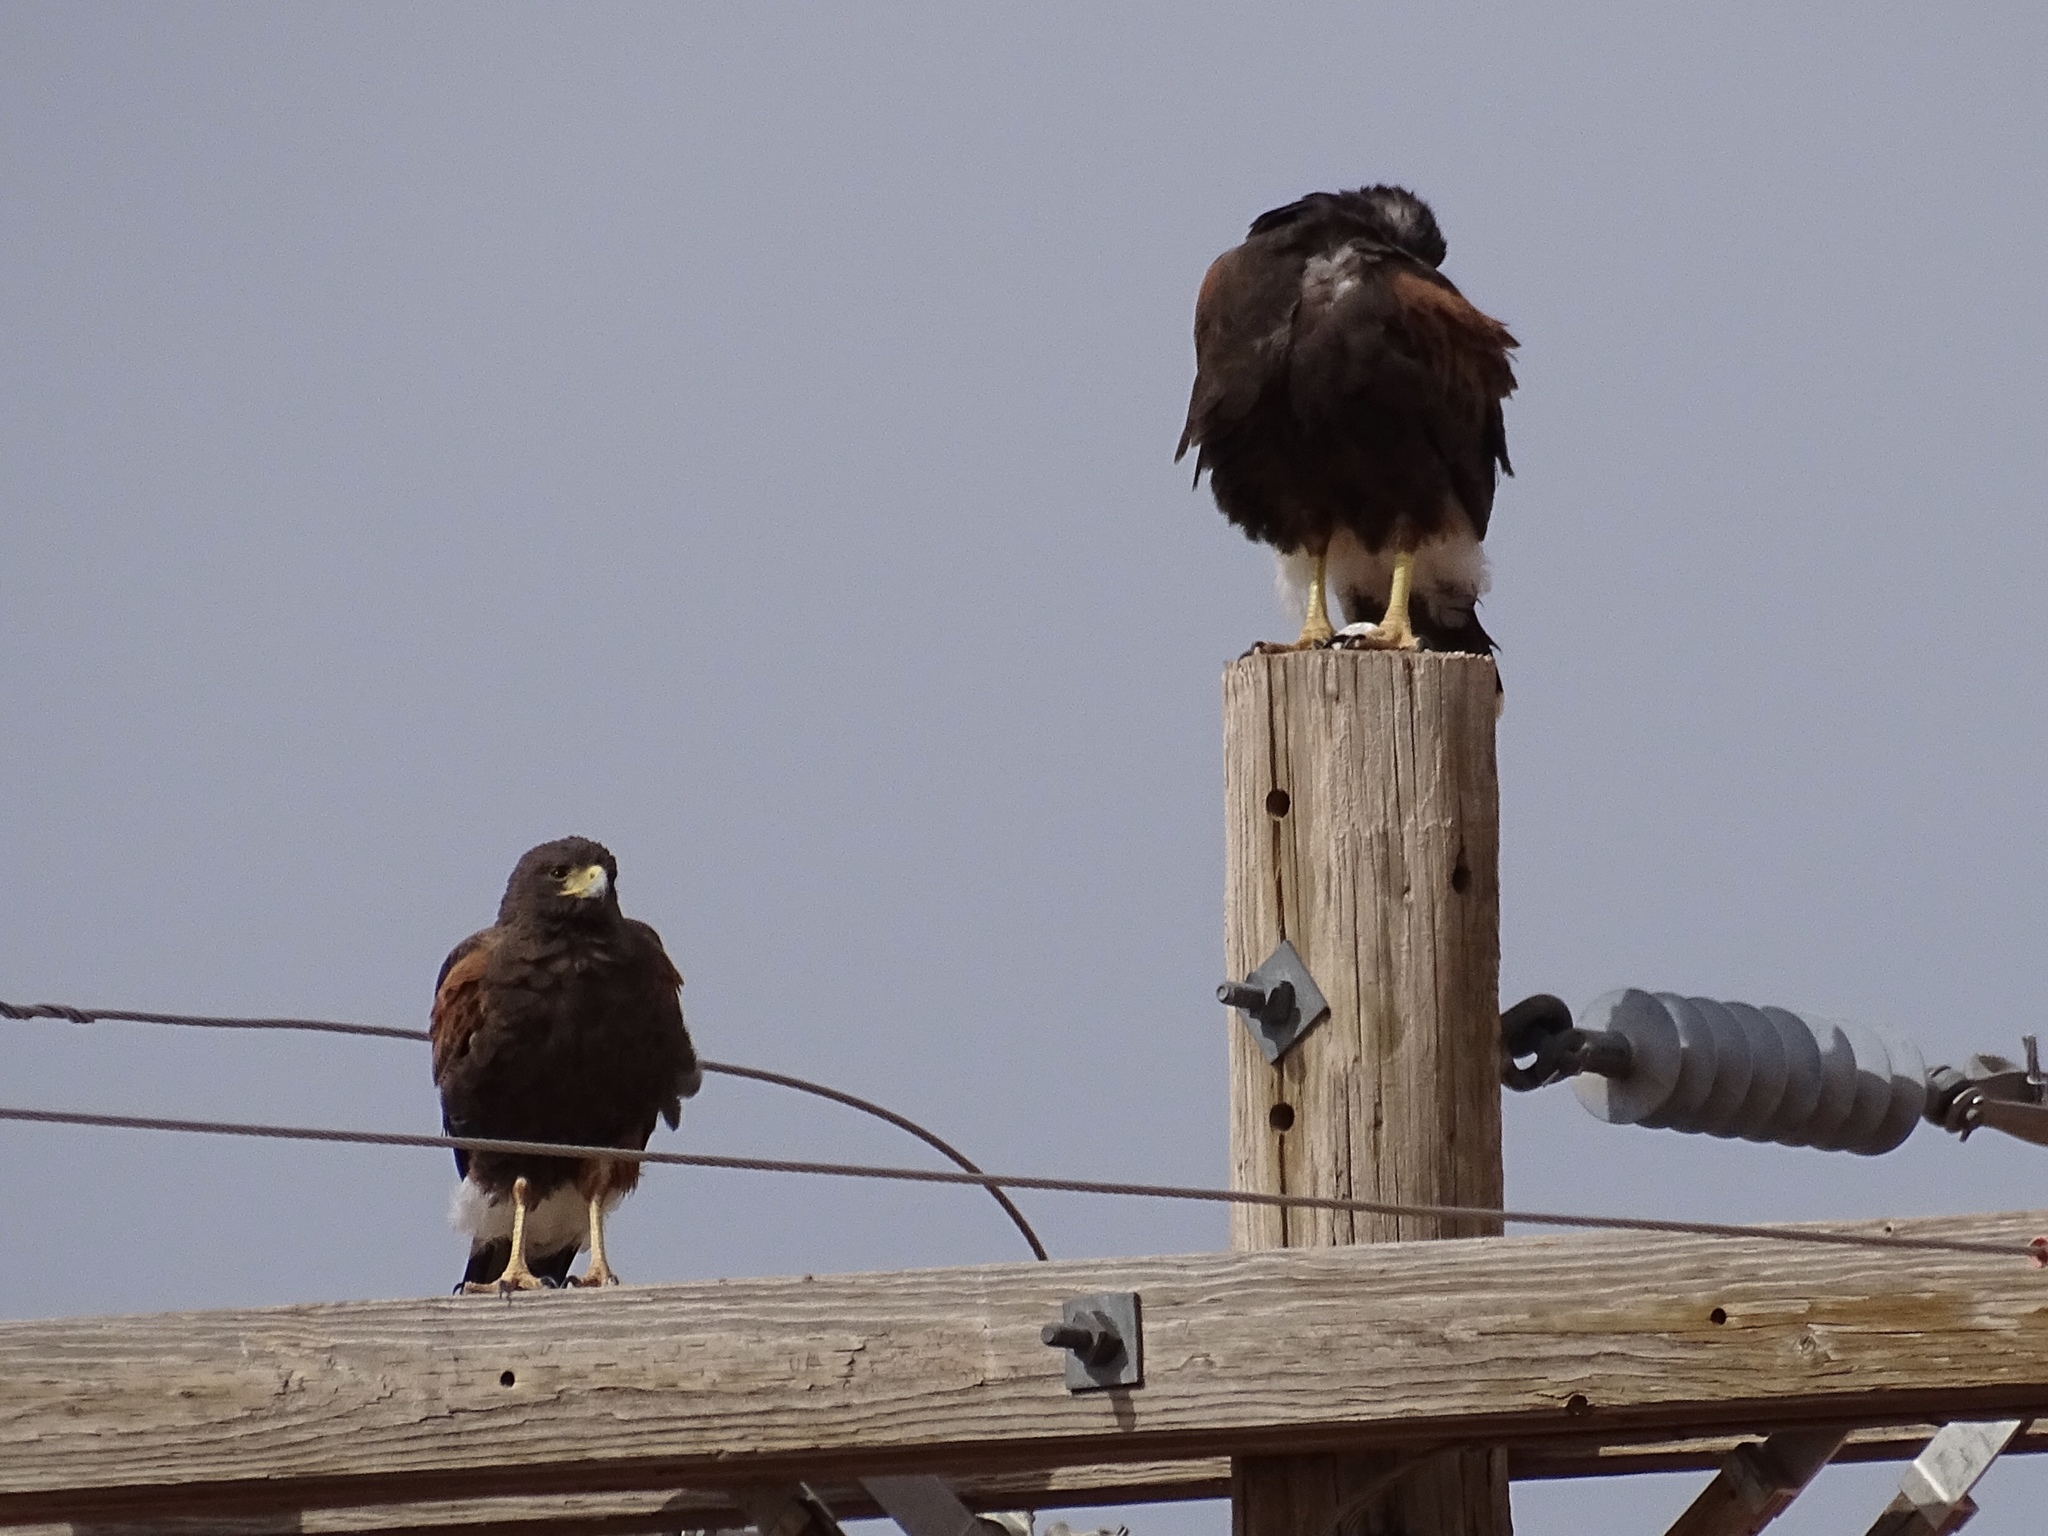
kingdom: Animalia
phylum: Chordata
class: Aves
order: Accipitriformes
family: Accipitridae
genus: Parabuteo
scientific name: Parabuteo unicinctus
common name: Harris's hawk
